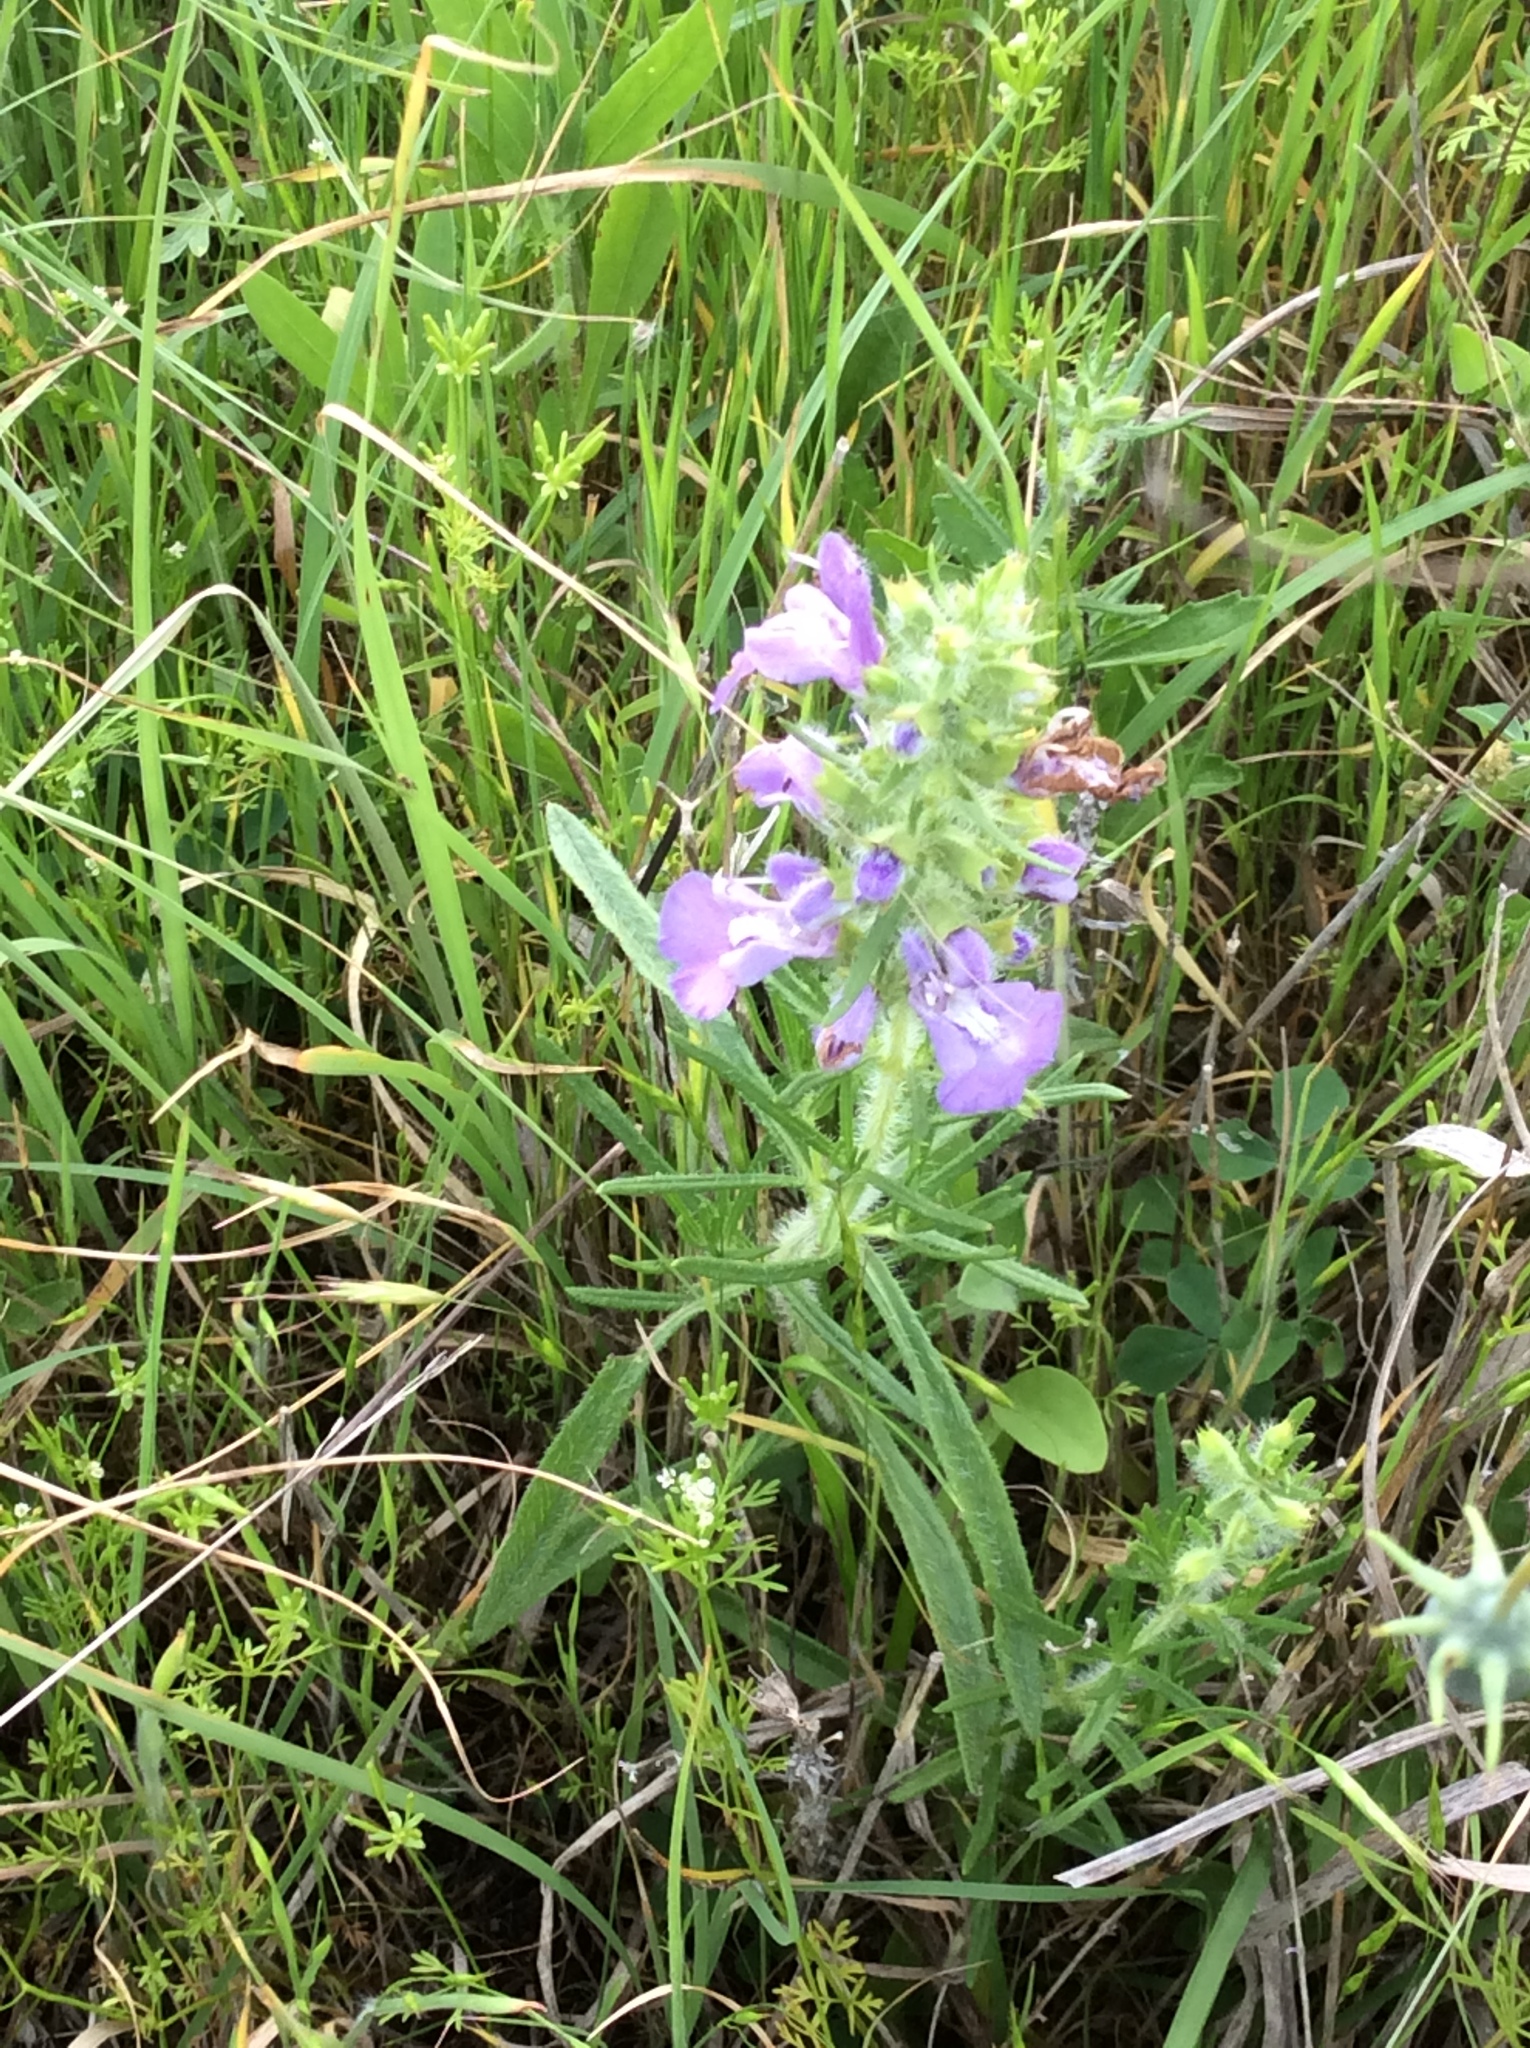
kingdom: Plantae
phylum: Tracheophyta
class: Magnoliopsida
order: Lamiales
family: Lamiaceae
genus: Salvia
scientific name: Salvia engelmannii
